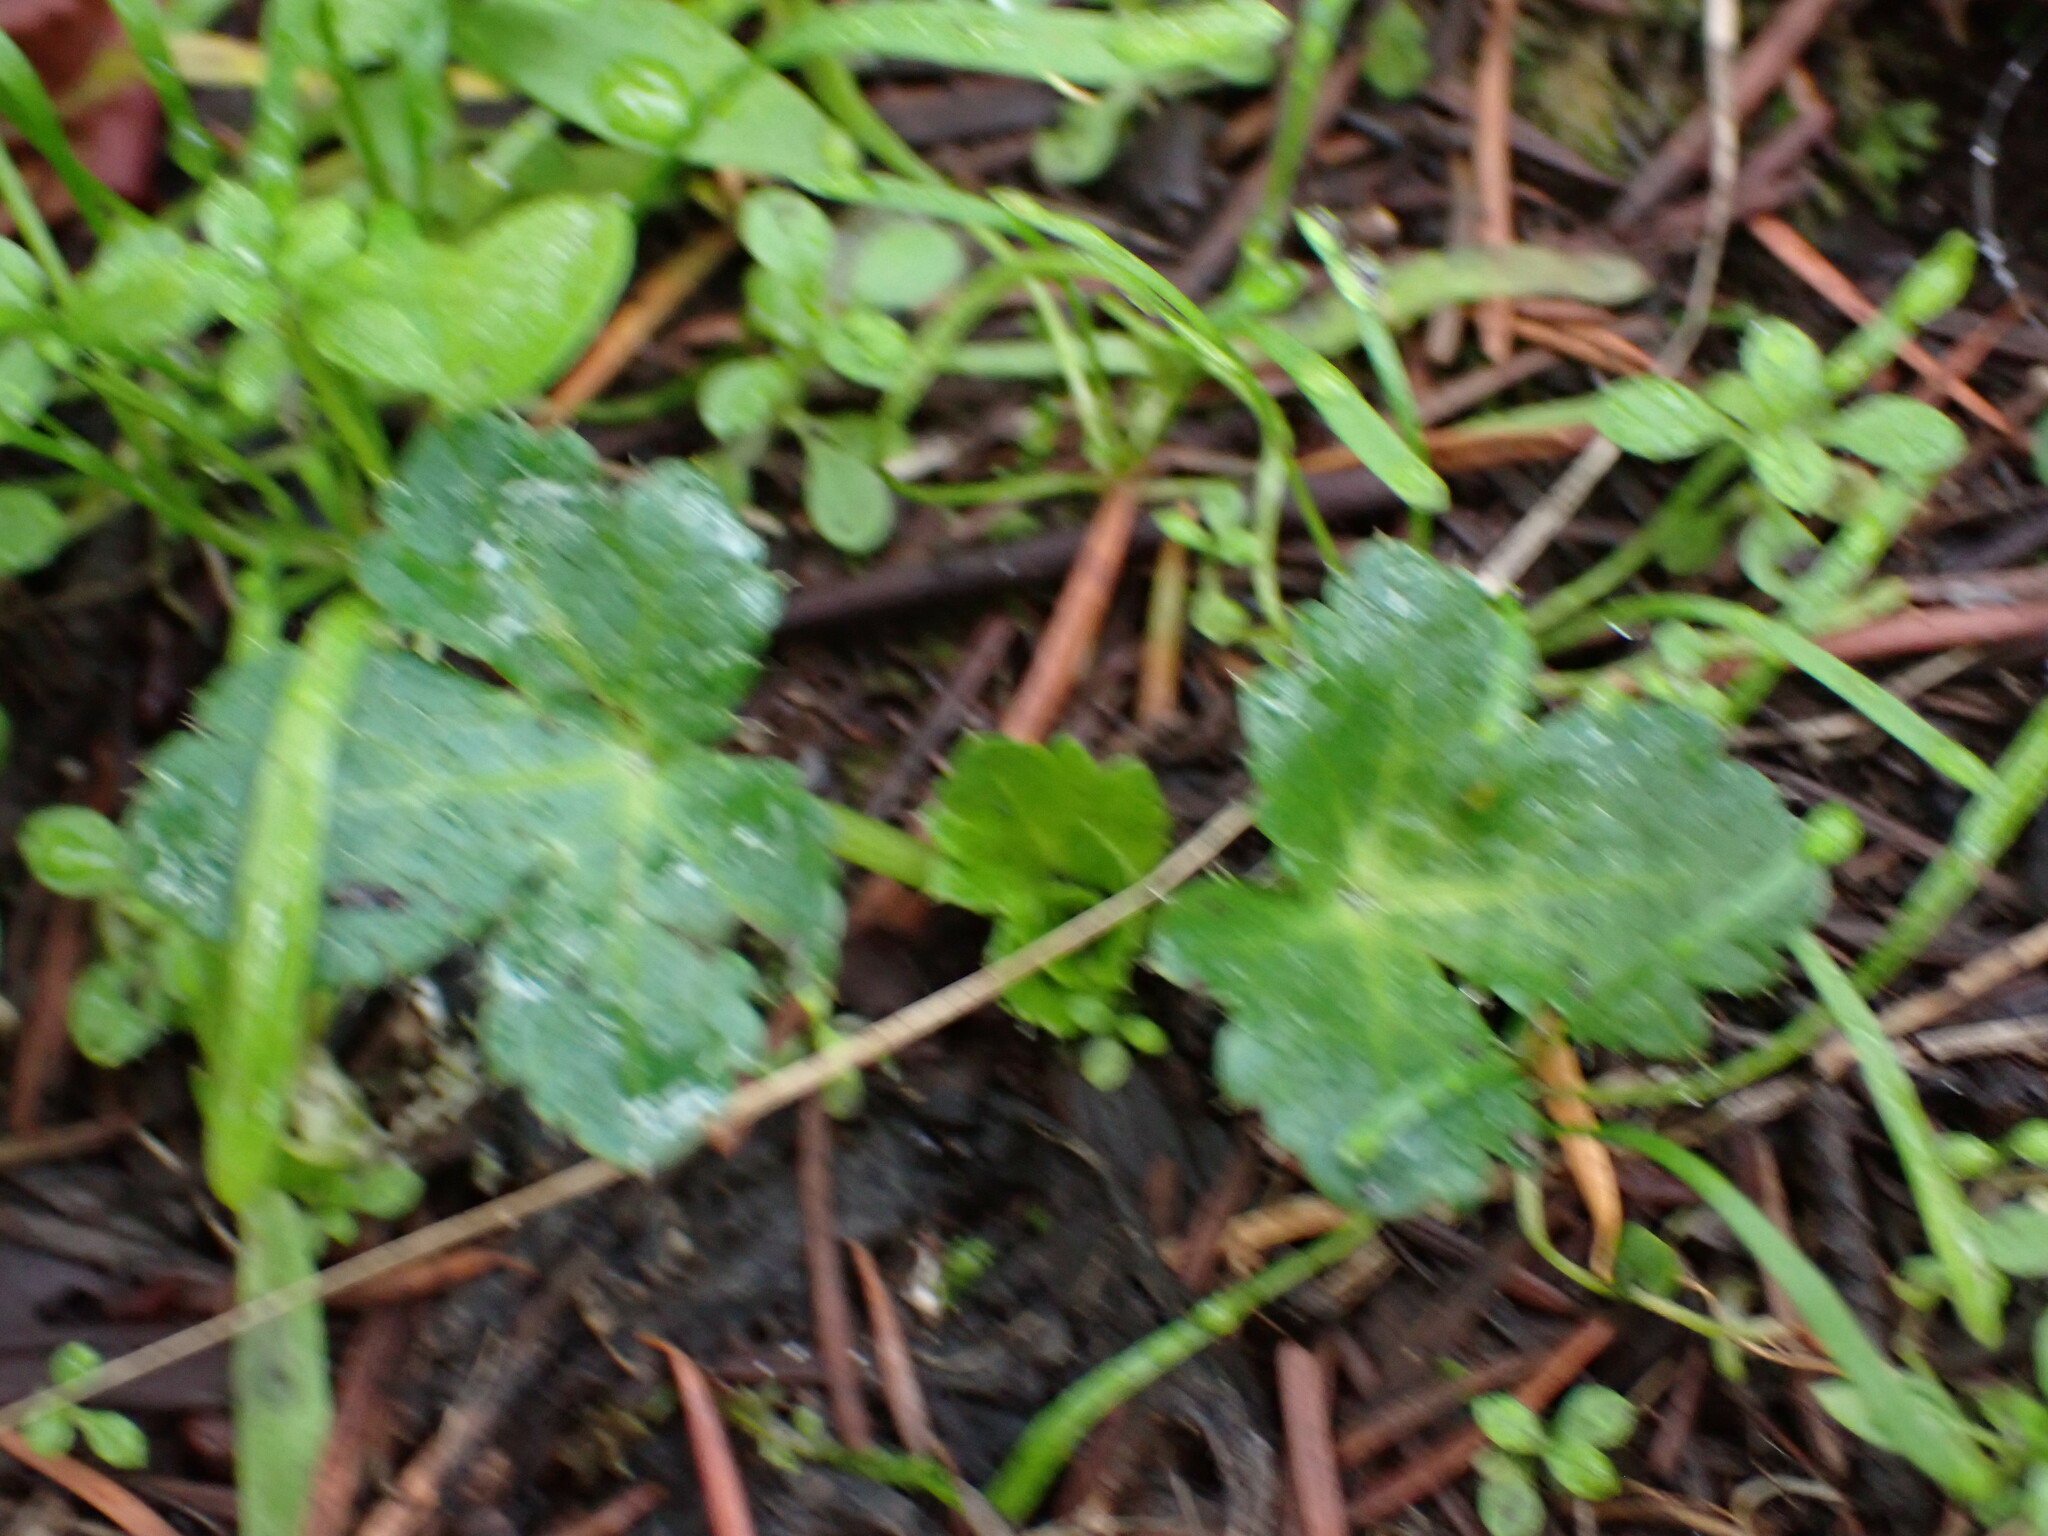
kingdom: Plantae
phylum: Tracheophyta
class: Magnoliopsida
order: Apiales
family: Apiaceae
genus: Sanicula
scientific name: Sanicula crassicaulis
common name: Western snakeroot
